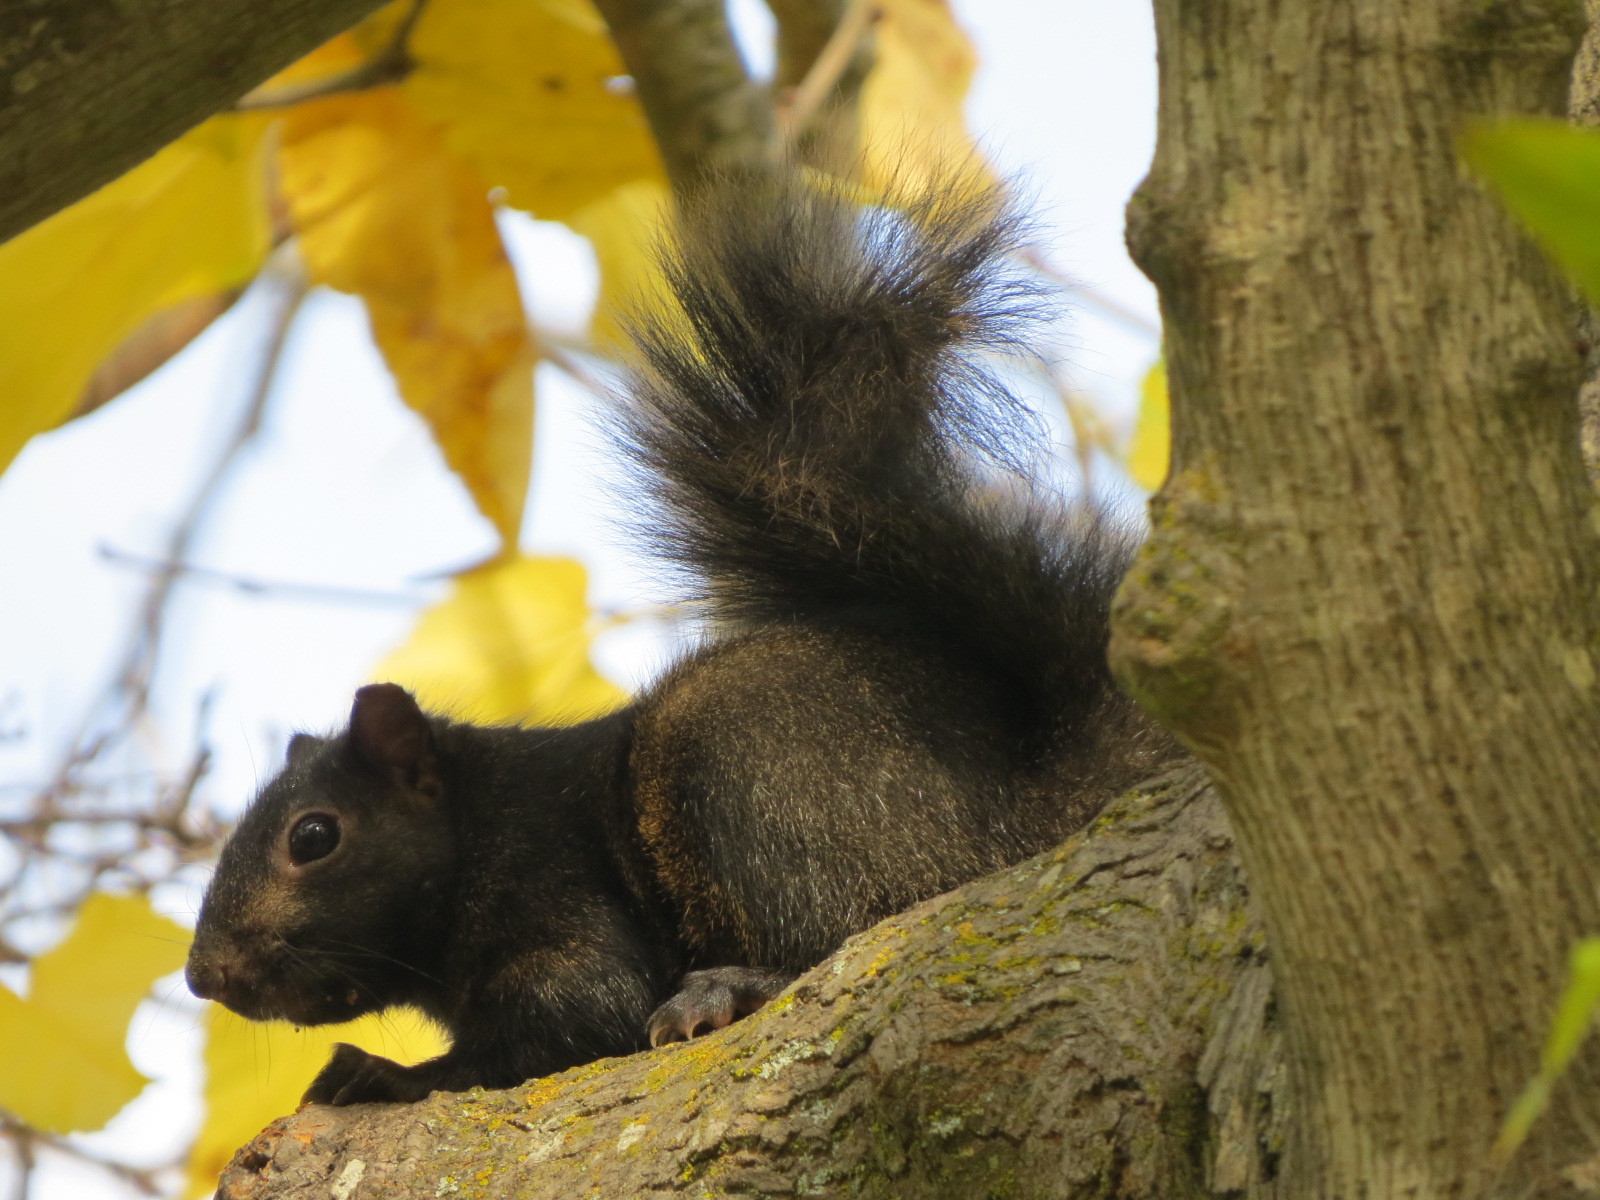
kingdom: Animalia
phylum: Chordata
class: Mammalia
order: Rodentia
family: Sciuridae
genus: Sciurus
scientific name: Sciurus carolinensis
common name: Eastern gray squirrel
